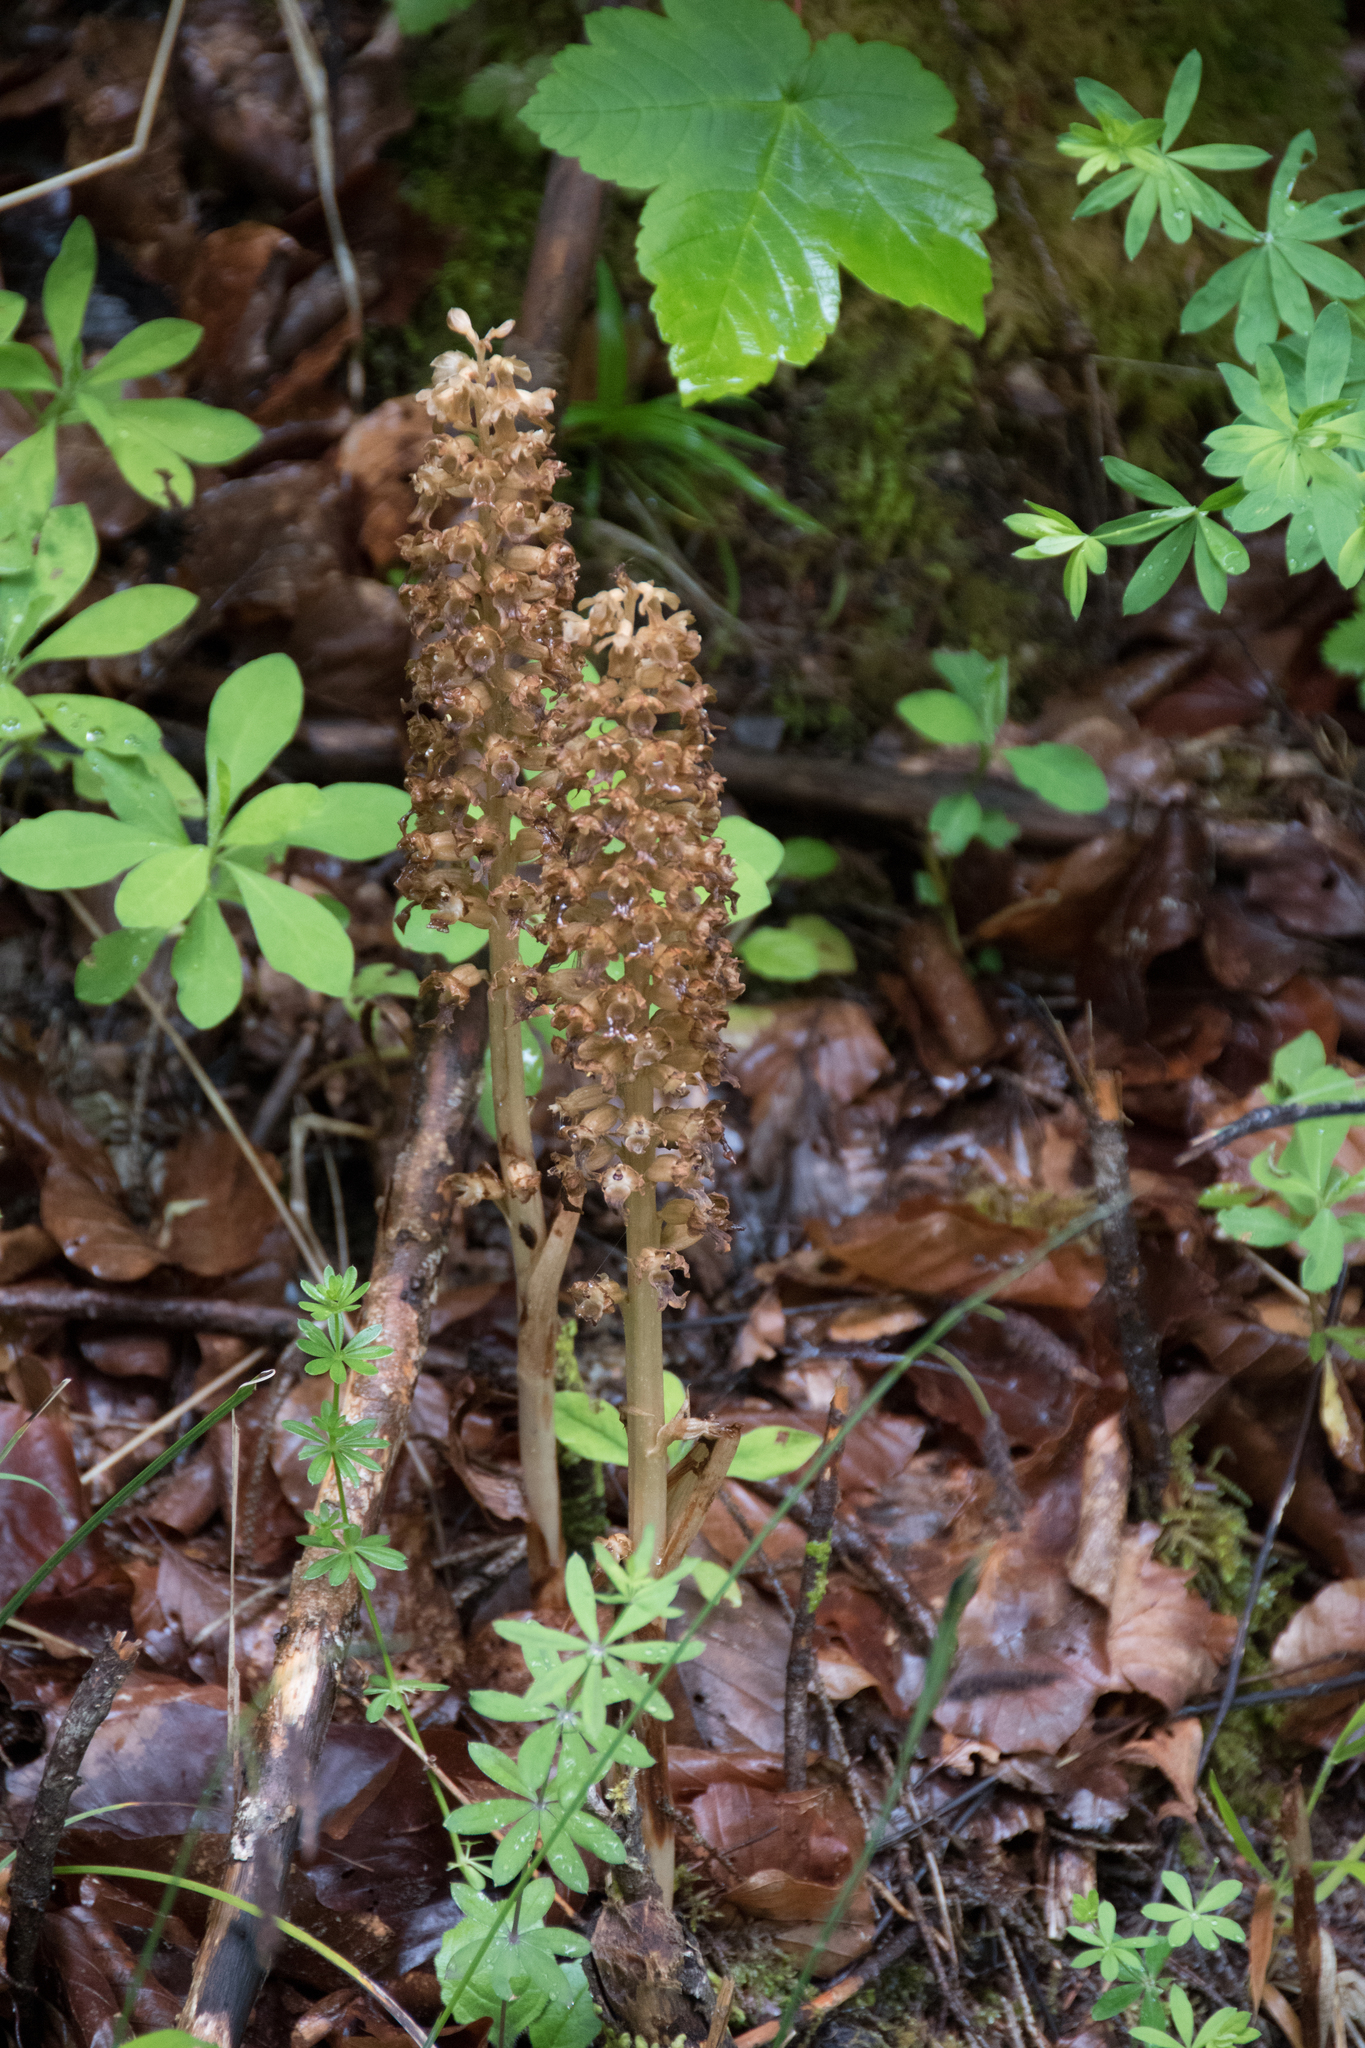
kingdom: Plantae
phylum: Tracheophyta
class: Liliopsida
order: Asparagales
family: Orchidaceae
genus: Neottia
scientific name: Neottia nidus-avis
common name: Bird's-nest orchid
